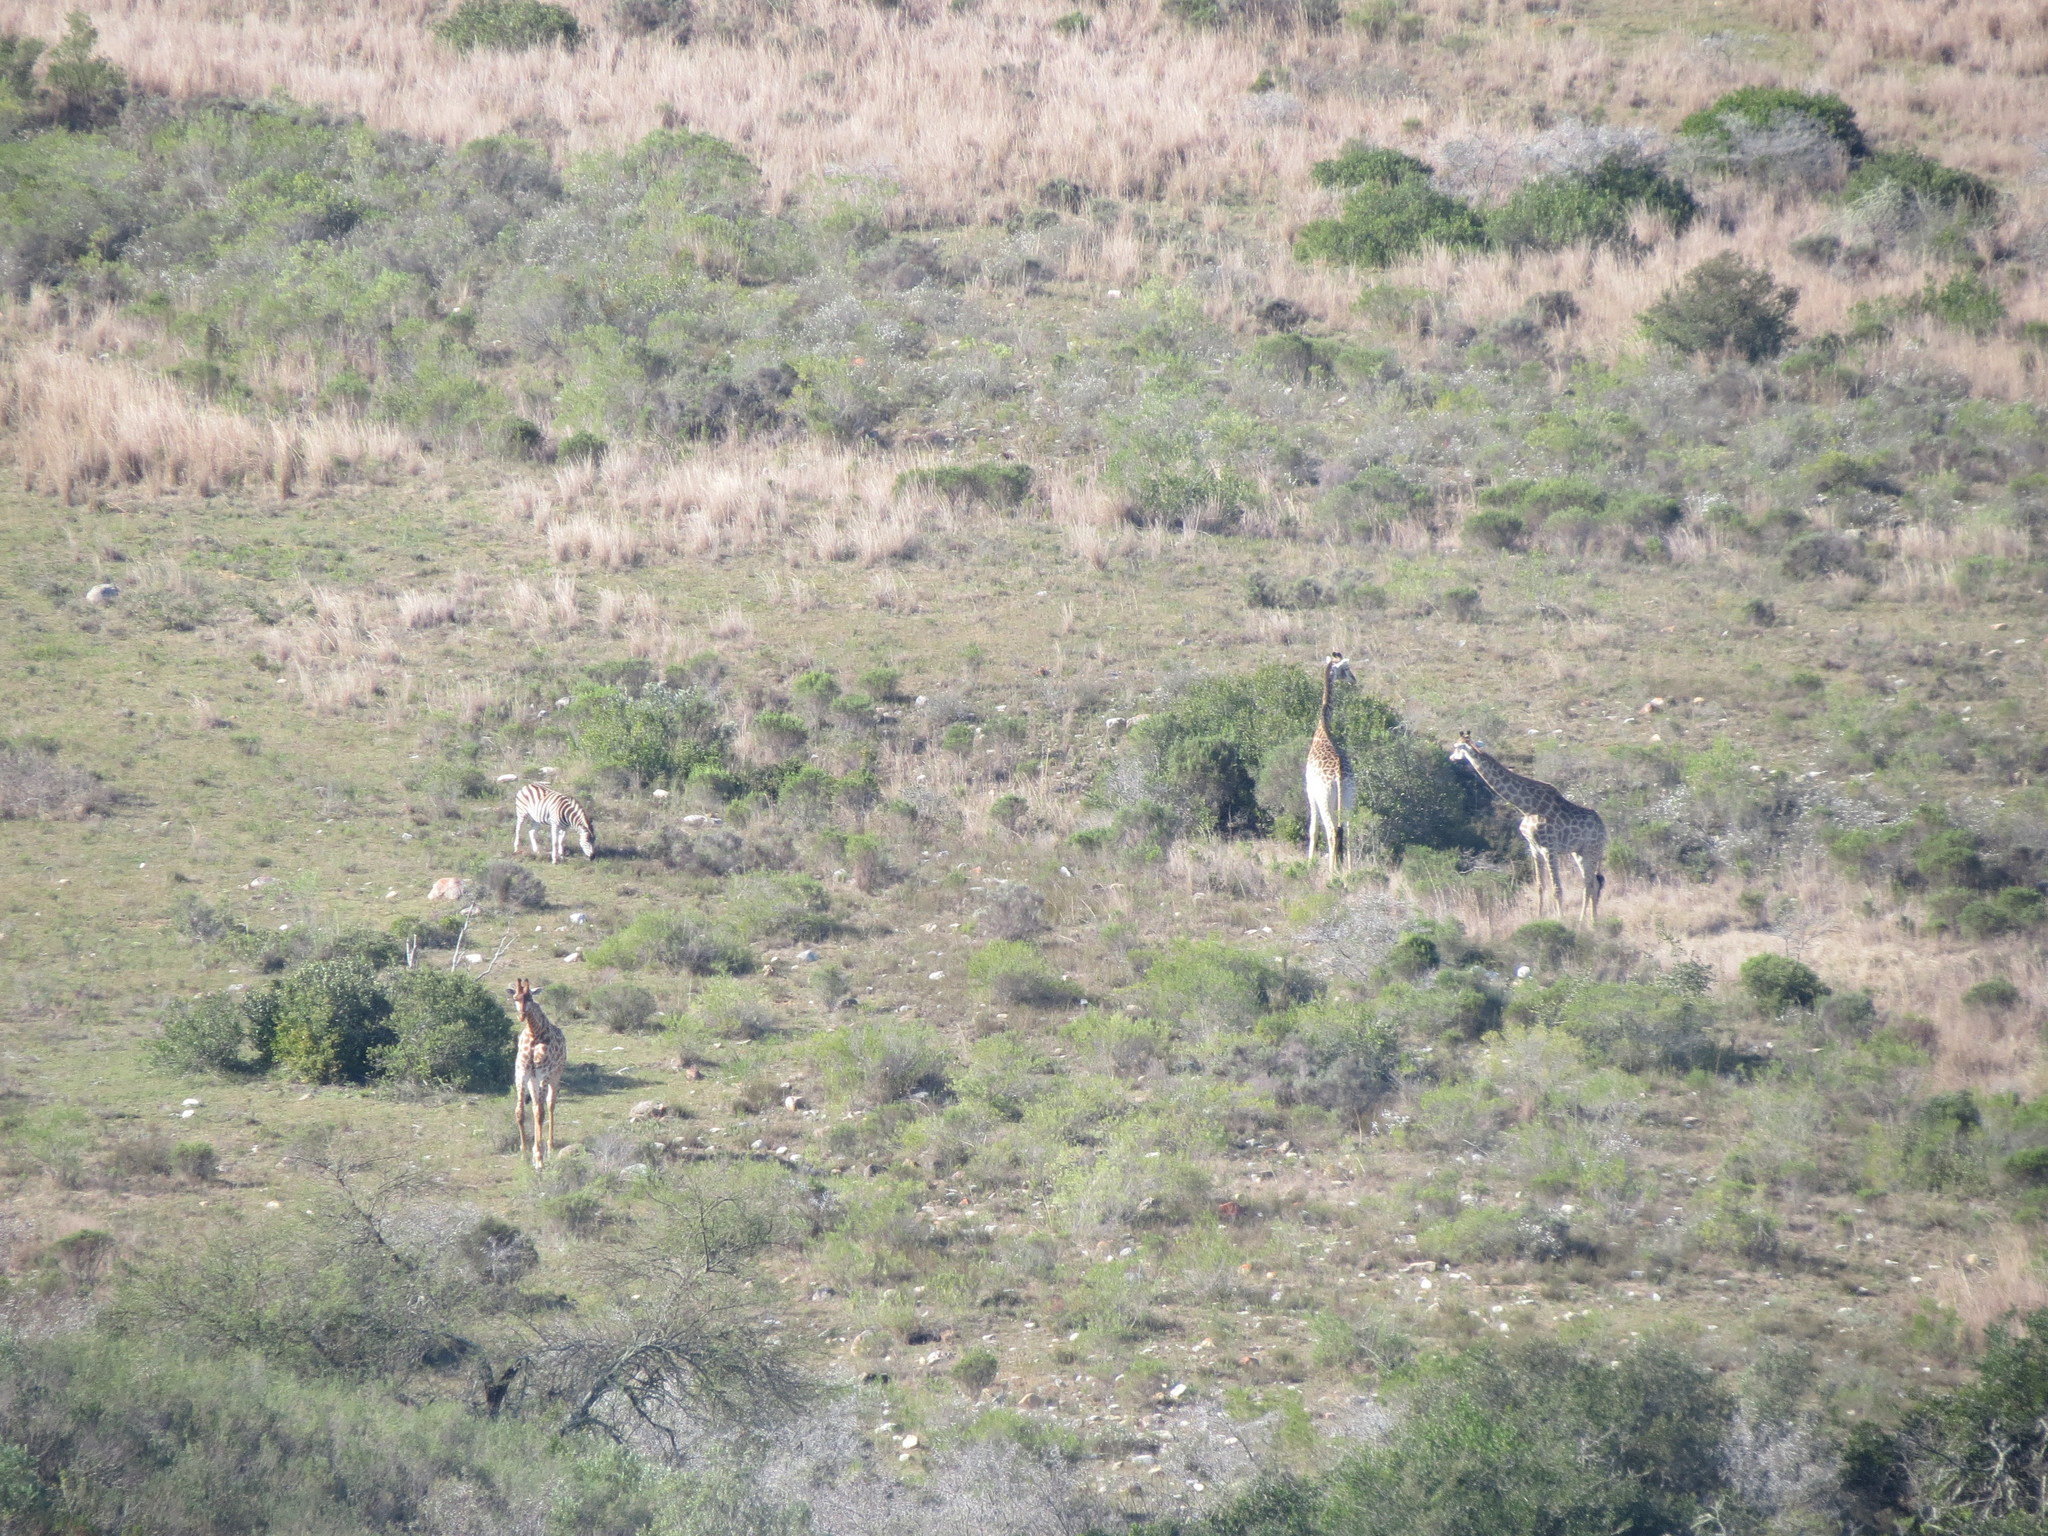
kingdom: Animalia
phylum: Chordata
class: Mammalia
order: Artiodactyla
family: Giraffidae
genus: Giraffa
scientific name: Giraffa giraffa
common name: Southern giraffe
